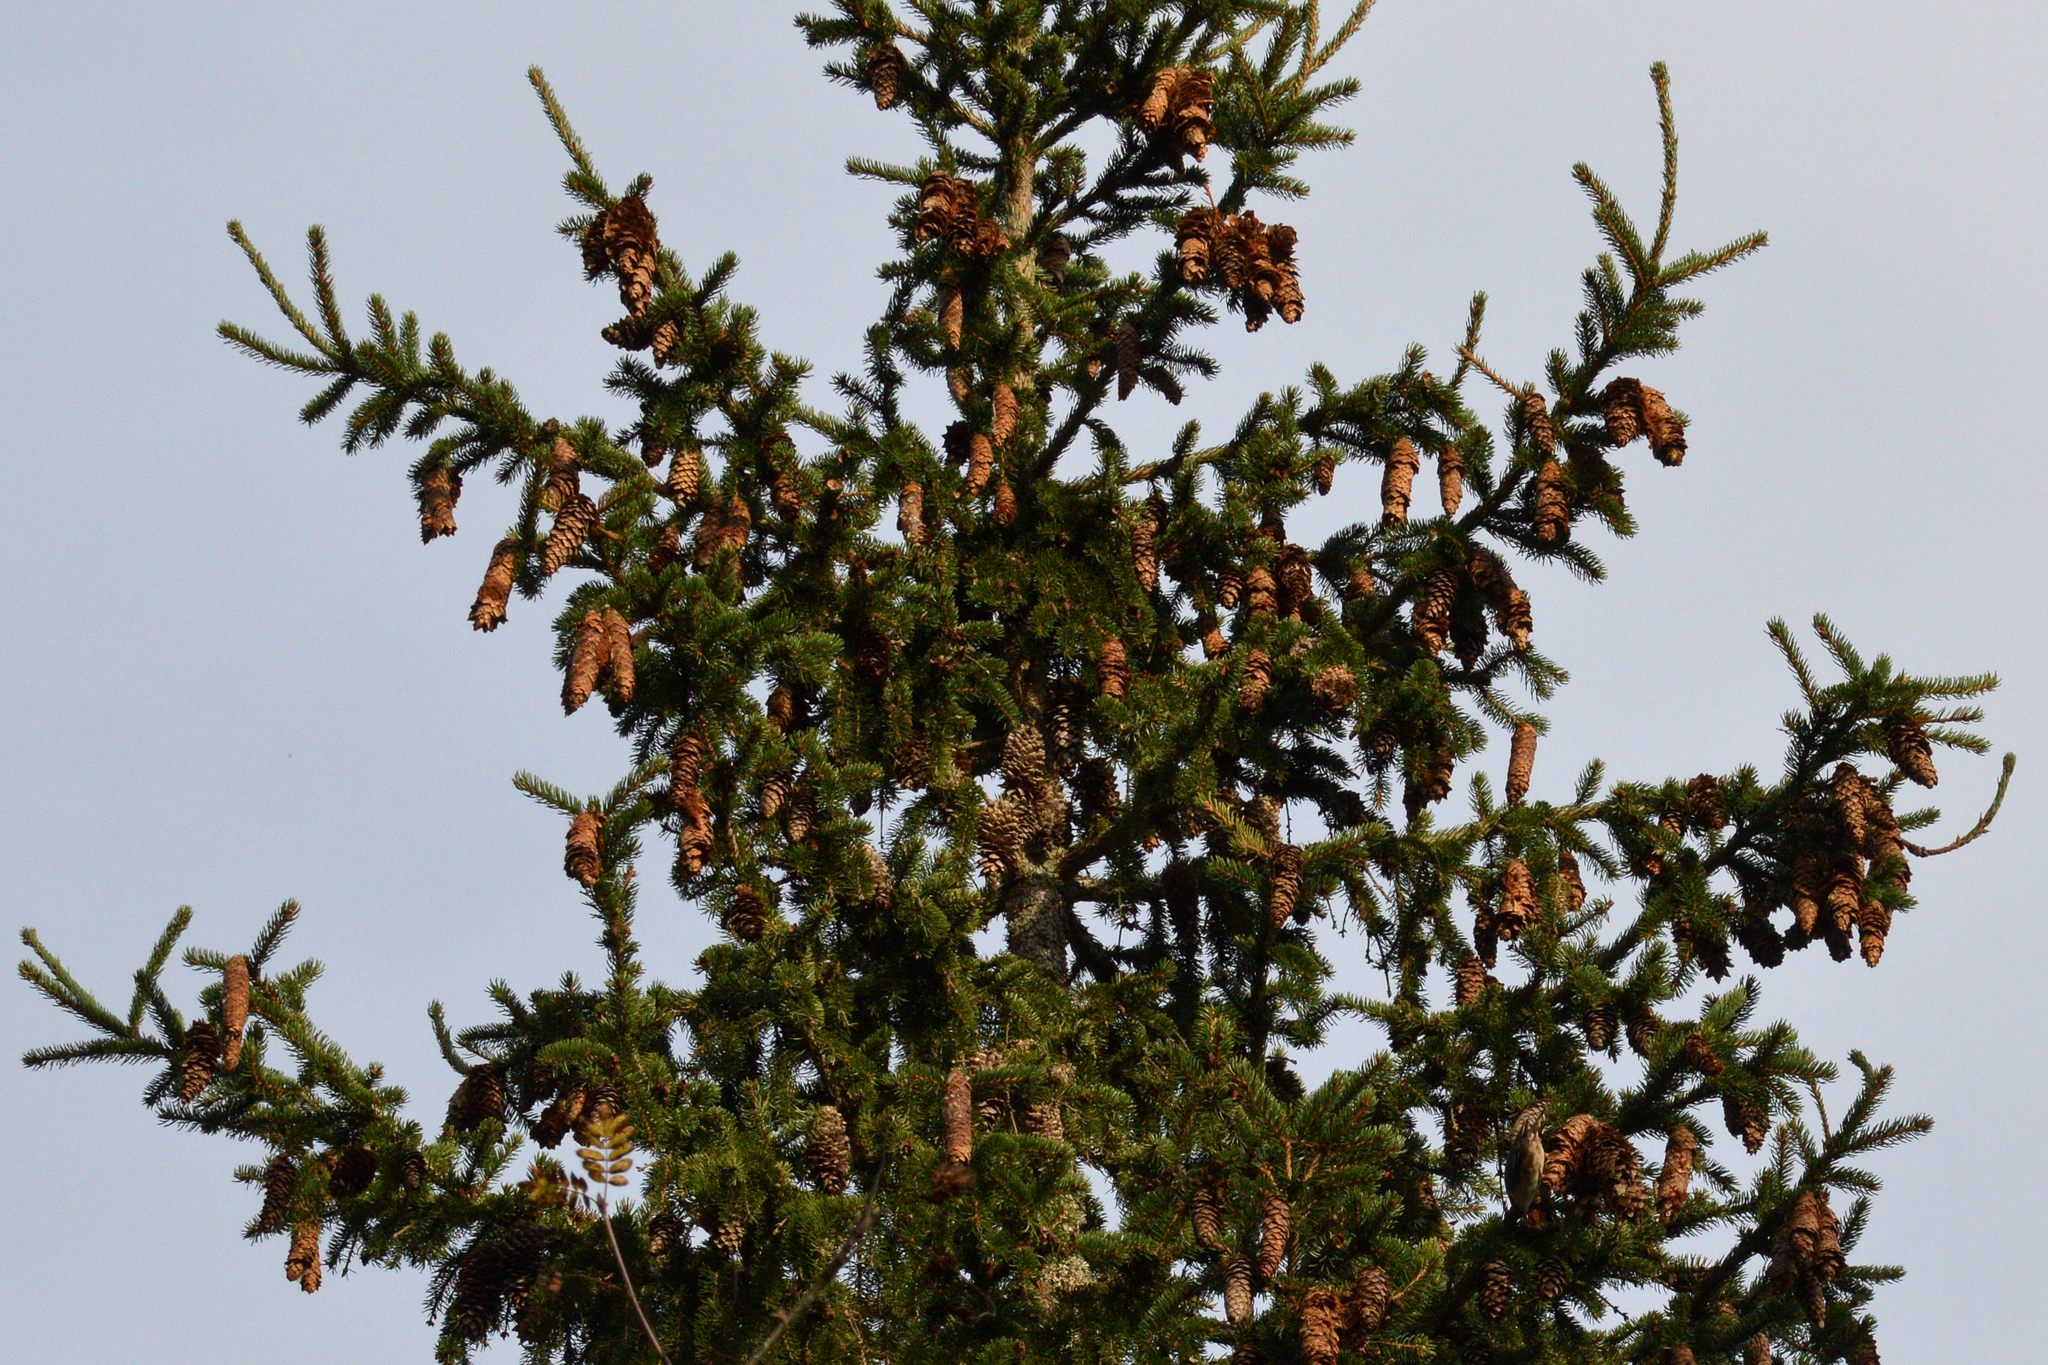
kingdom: Plantae
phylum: Tracheophyta
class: Pinopsida
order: Pinales
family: Pinaceae
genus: Picea
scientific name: Picea abies
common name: Norway spruce
